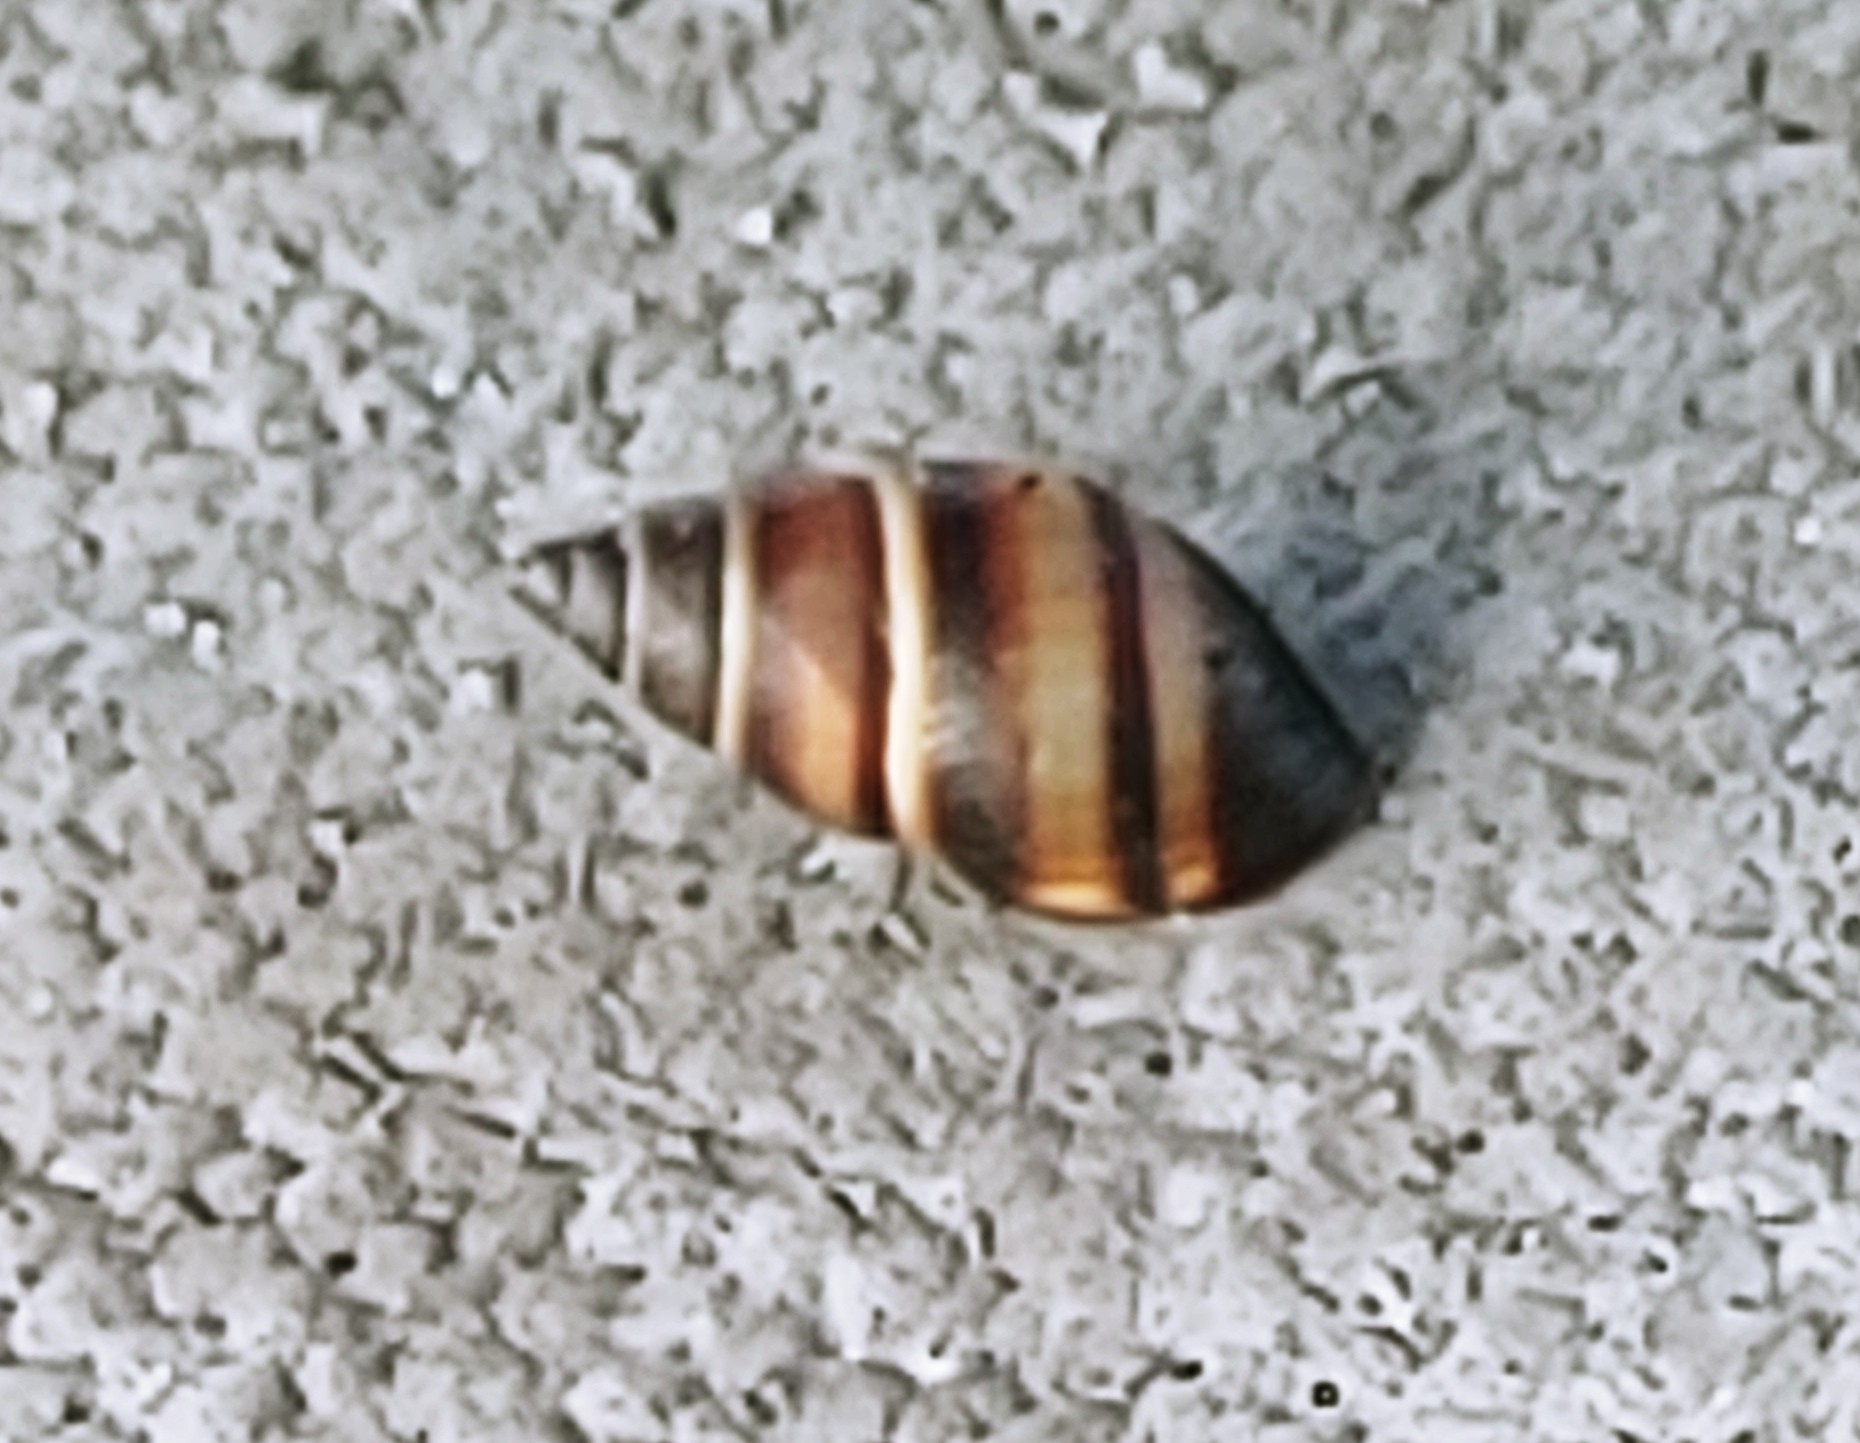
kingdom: Animalia
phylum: Mollusca
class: Gastropoda
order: Stylommatophora
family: Bulimulidae
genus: Bulimulus
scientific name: Bulimulus guadalupensis
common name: West indian bulimulus
